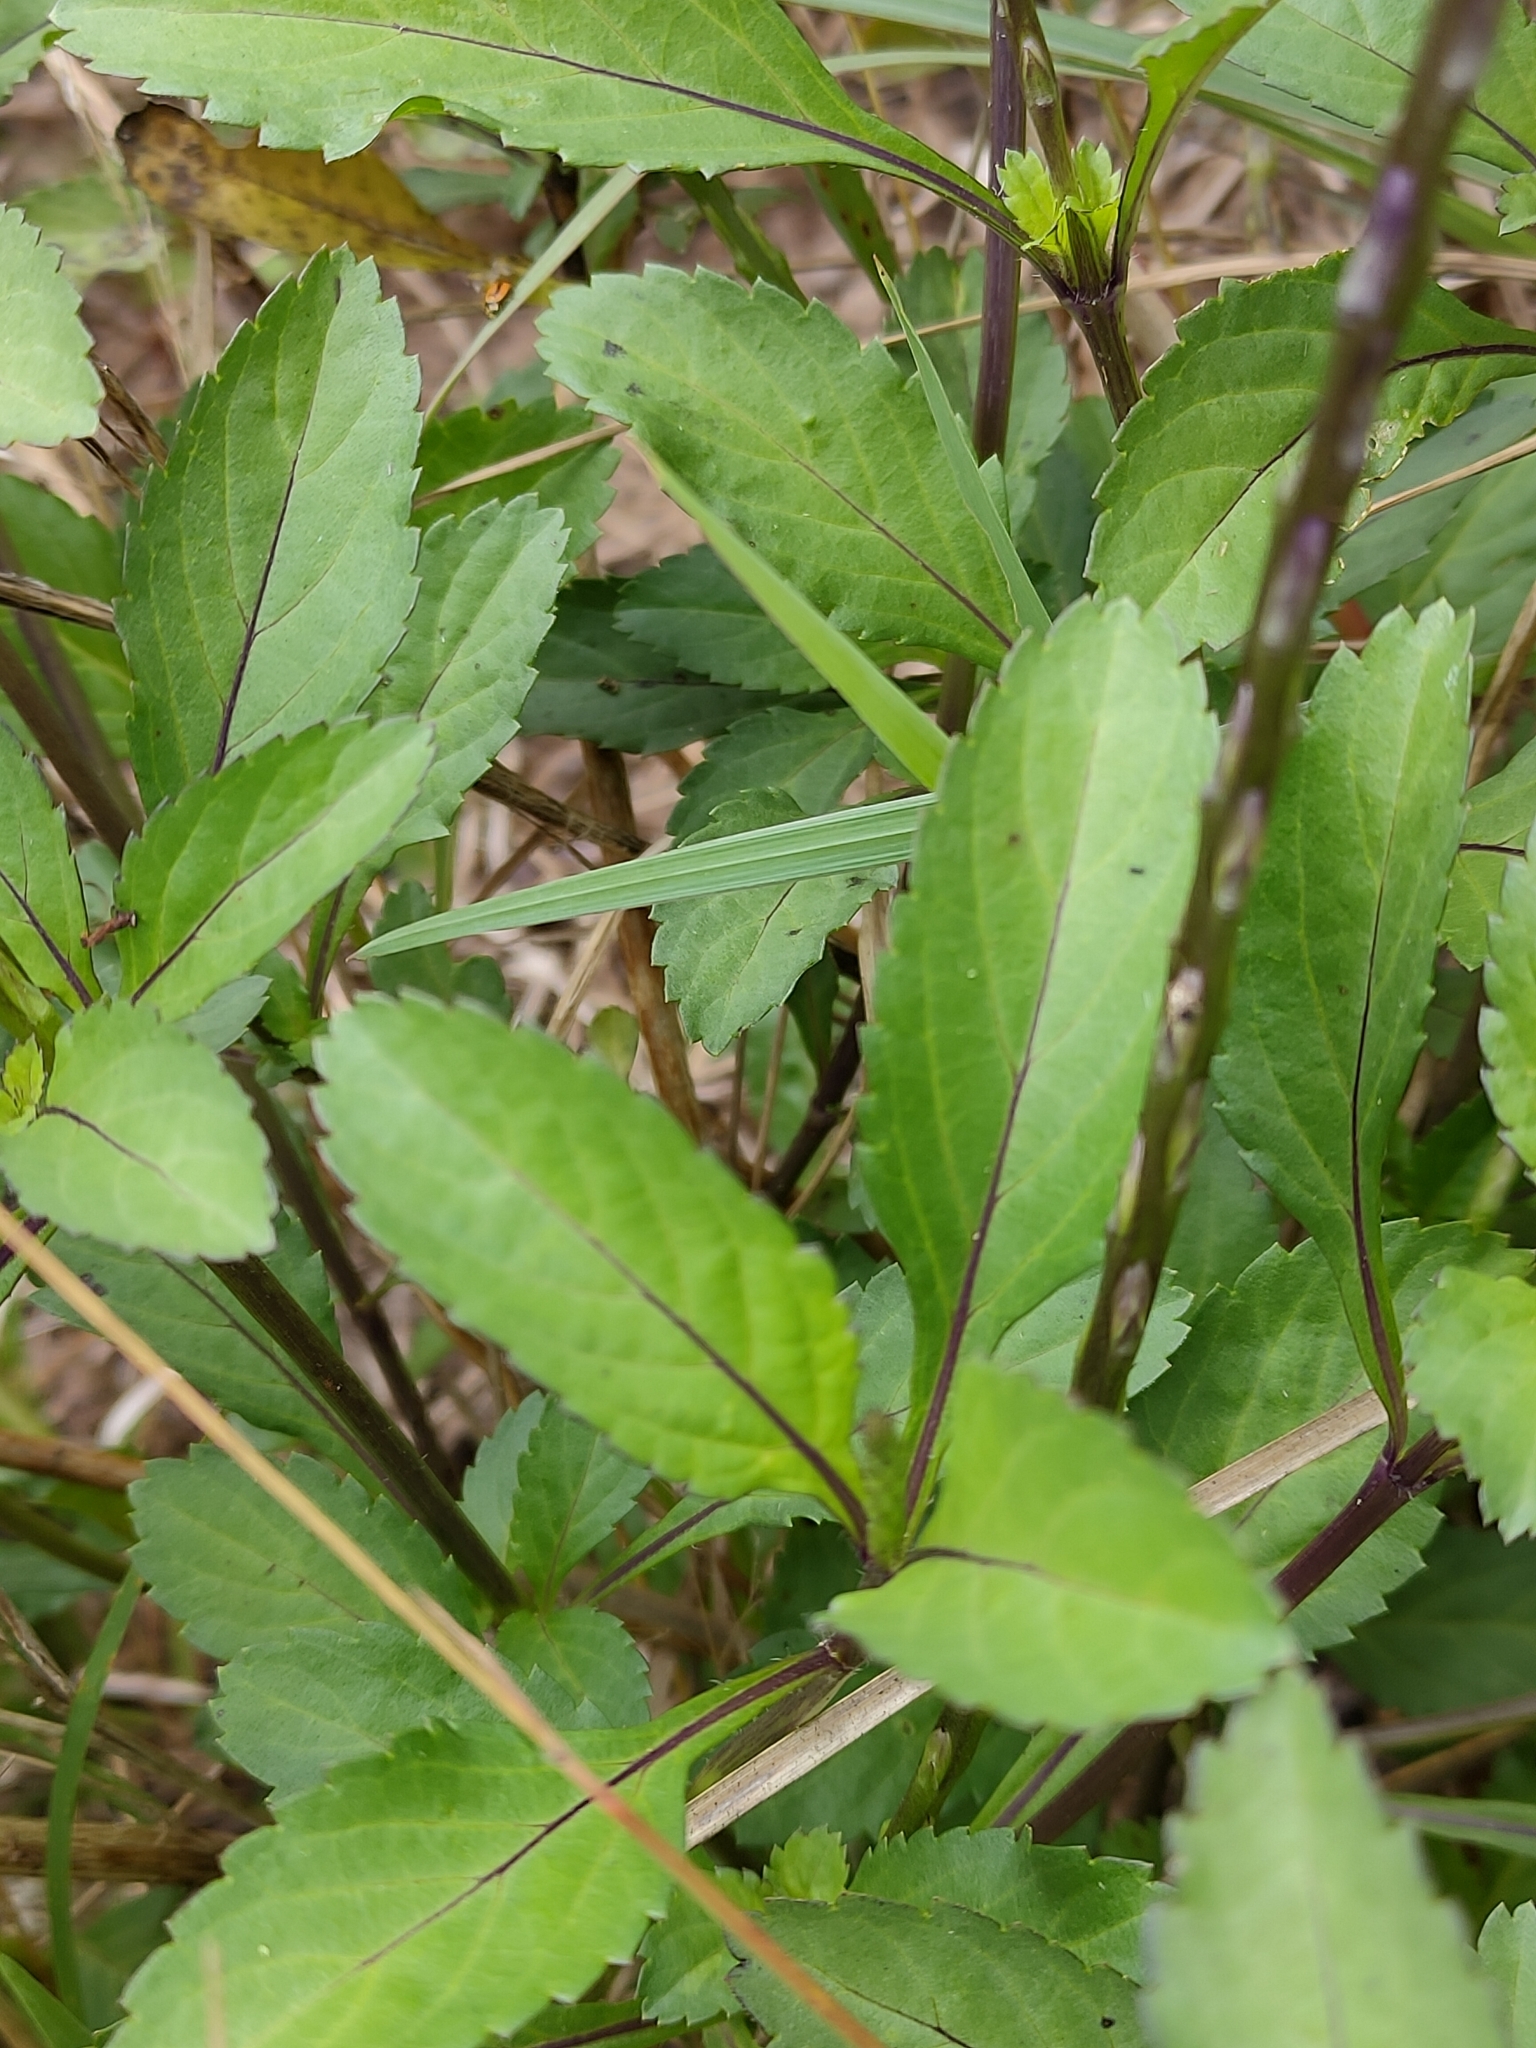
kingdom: Plantae
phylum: Tracheophyta
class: Magnoliopsida
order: Lamiales
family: Verbenaceae
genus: Stachytarpheta
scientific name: Stachytarpheta jamaicensis
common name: Light-blue snakeweed
